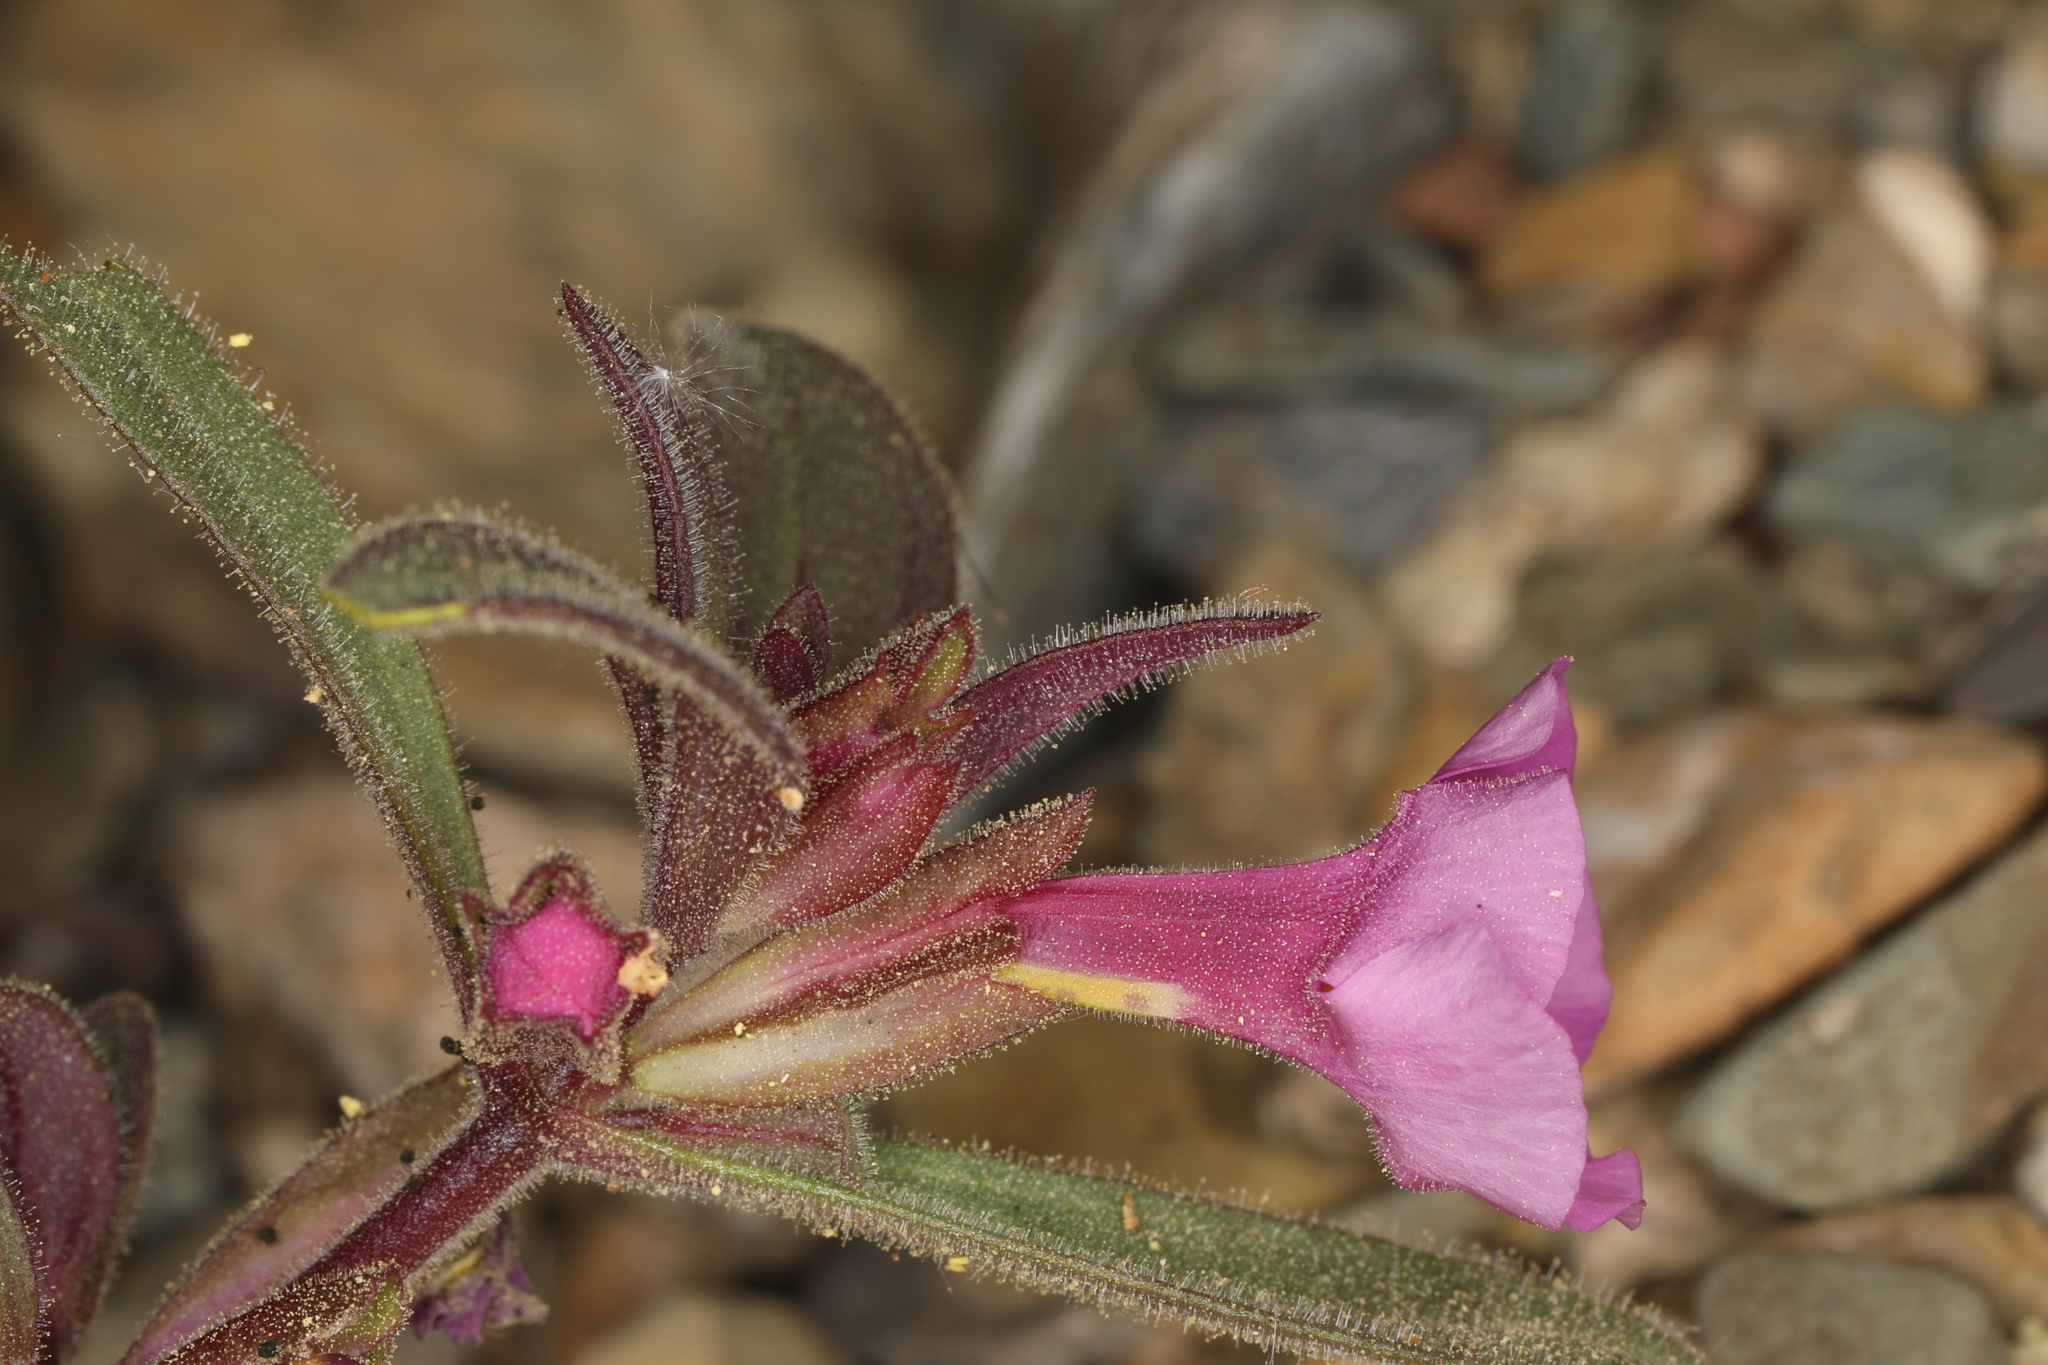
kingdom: Plantae
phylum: Tracheophyta
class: Magnoliopsida
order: Lamiales
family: Phrymaceae
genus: Diplacus
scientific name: Diplacus parryi
